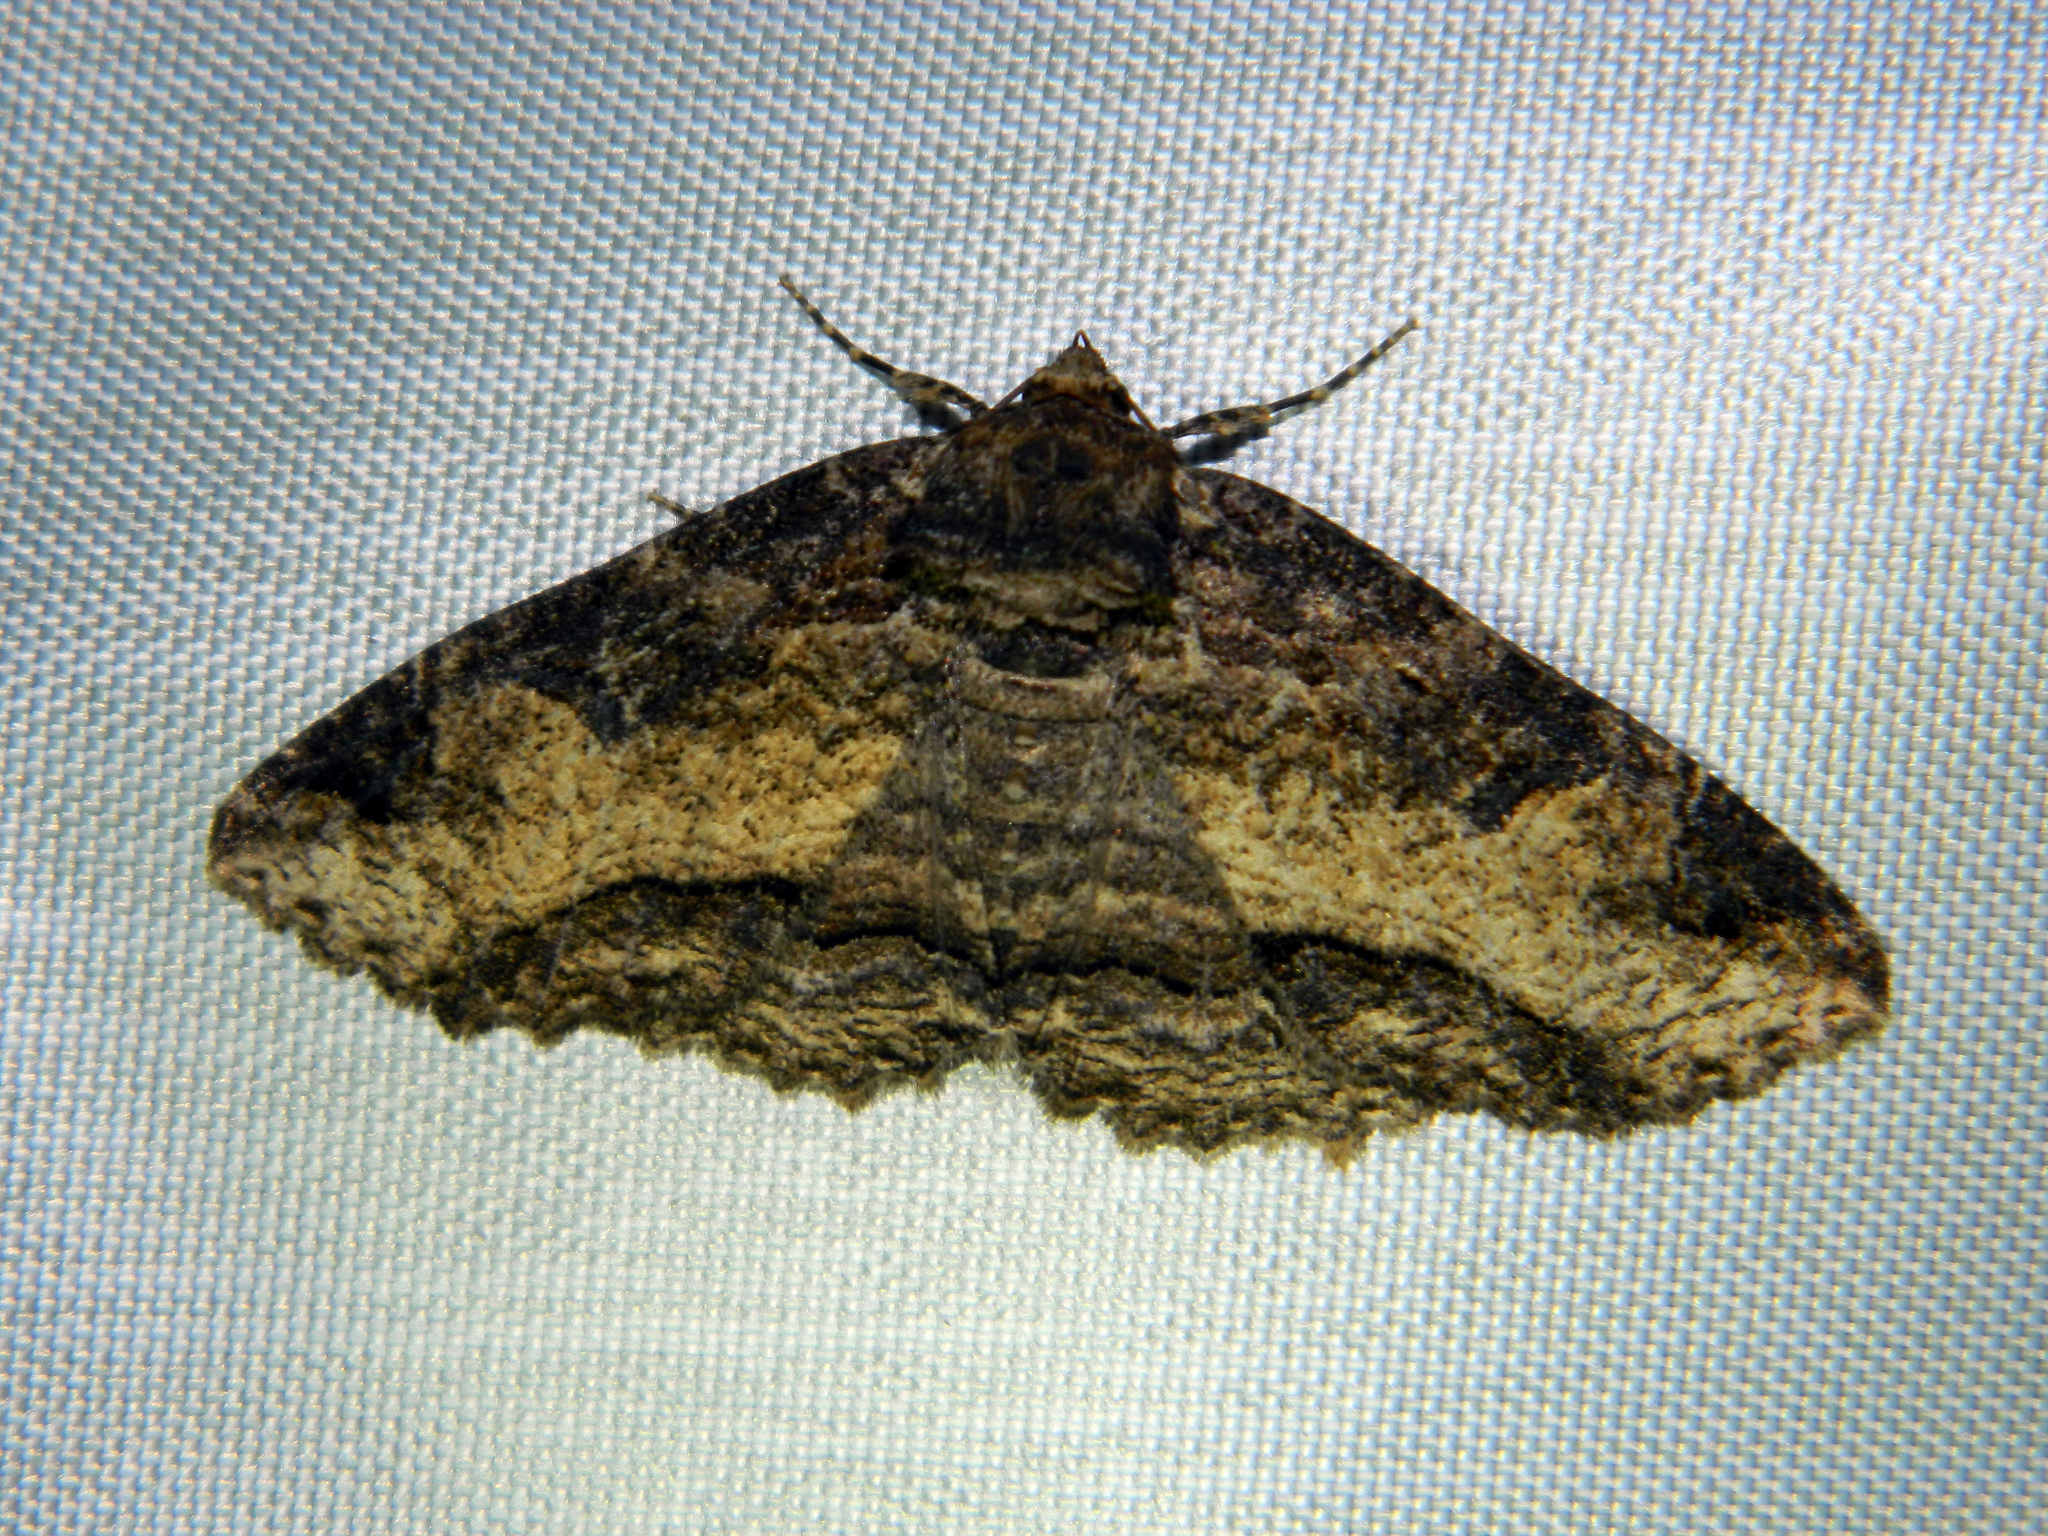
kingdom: Animalia
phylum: Arthropoda
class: Insecta
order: Lepidoptera
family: Erebidae
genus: Zale
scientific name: Zale minerea
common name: Colorful zale moth
